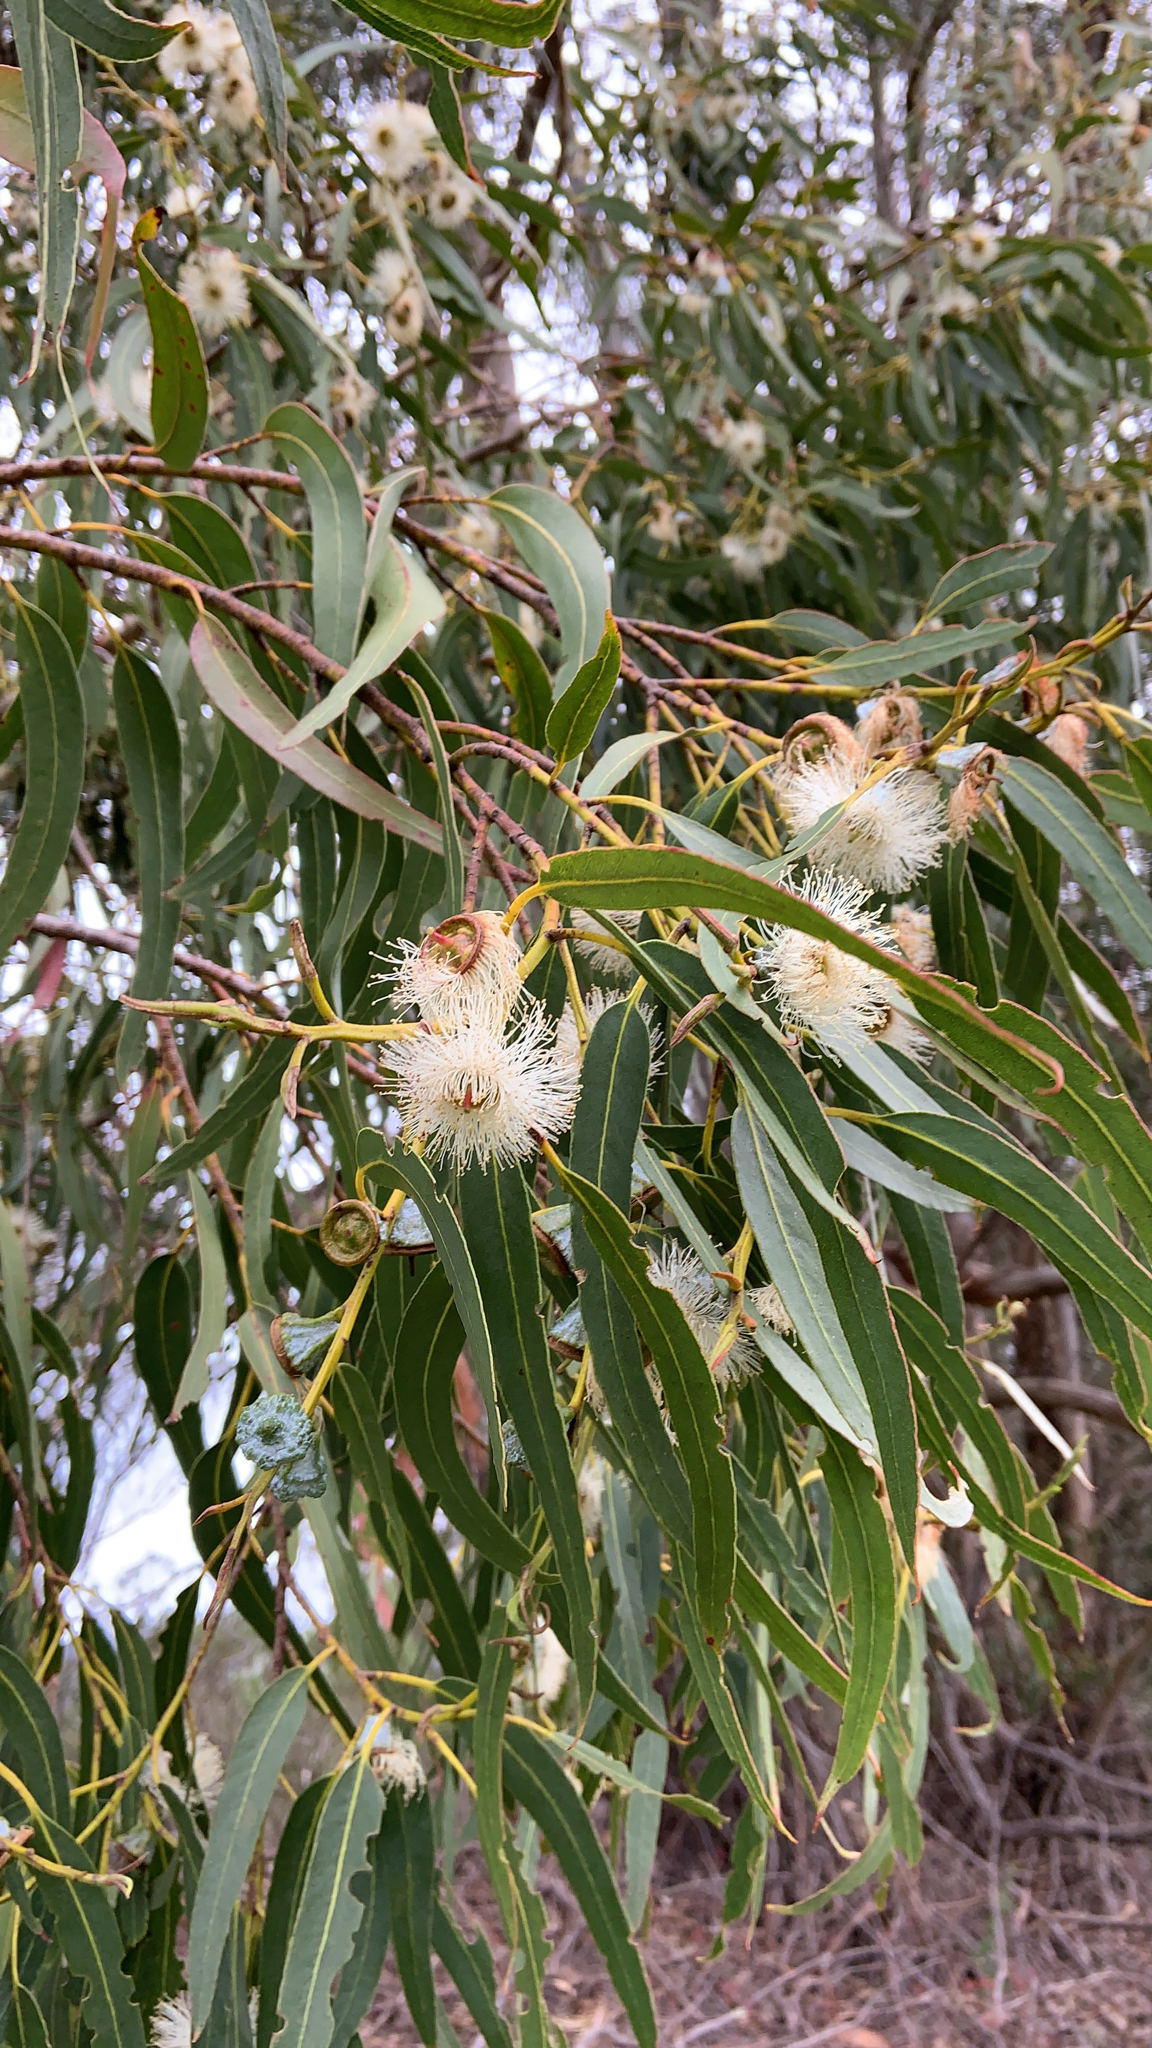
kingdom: Plantae
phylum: Tracheophyta
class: Magnoliopsida
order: Myrtales
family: Myrtaceae
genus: Eucalyptus
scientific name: Eucalyptus globulus
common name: Southern blue-gum
